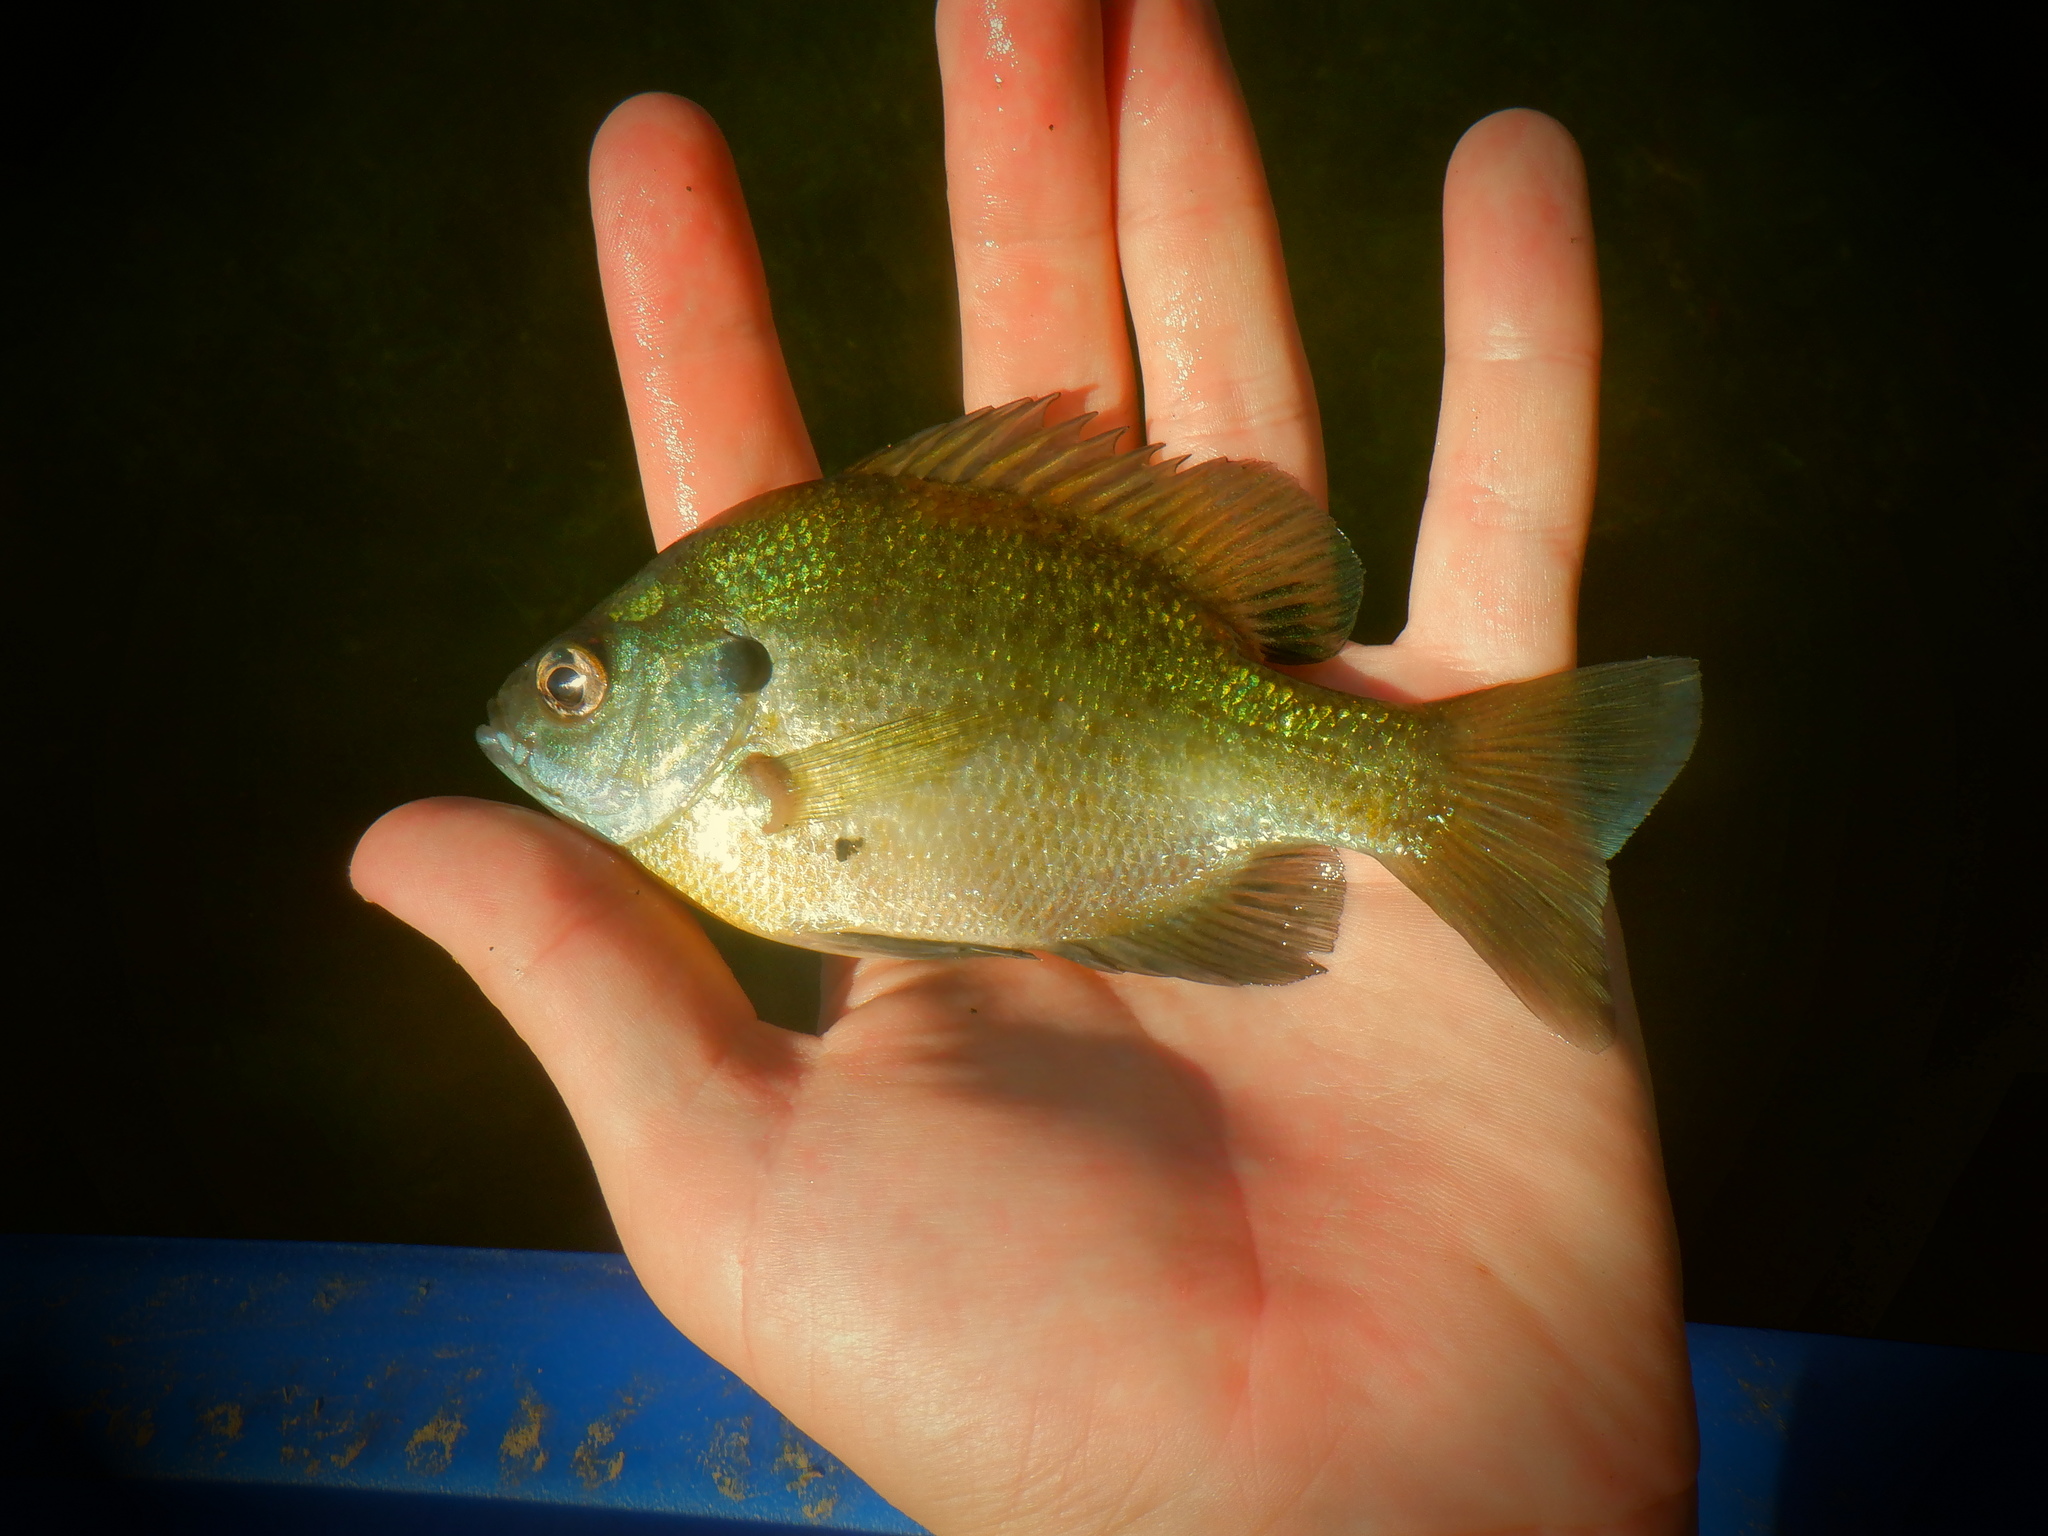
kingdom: Animalia
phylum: Chordata
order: Perciformes
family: Centrarchidae
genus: Lepomis
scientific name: Lepomis macrochirus
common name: Bluegill
